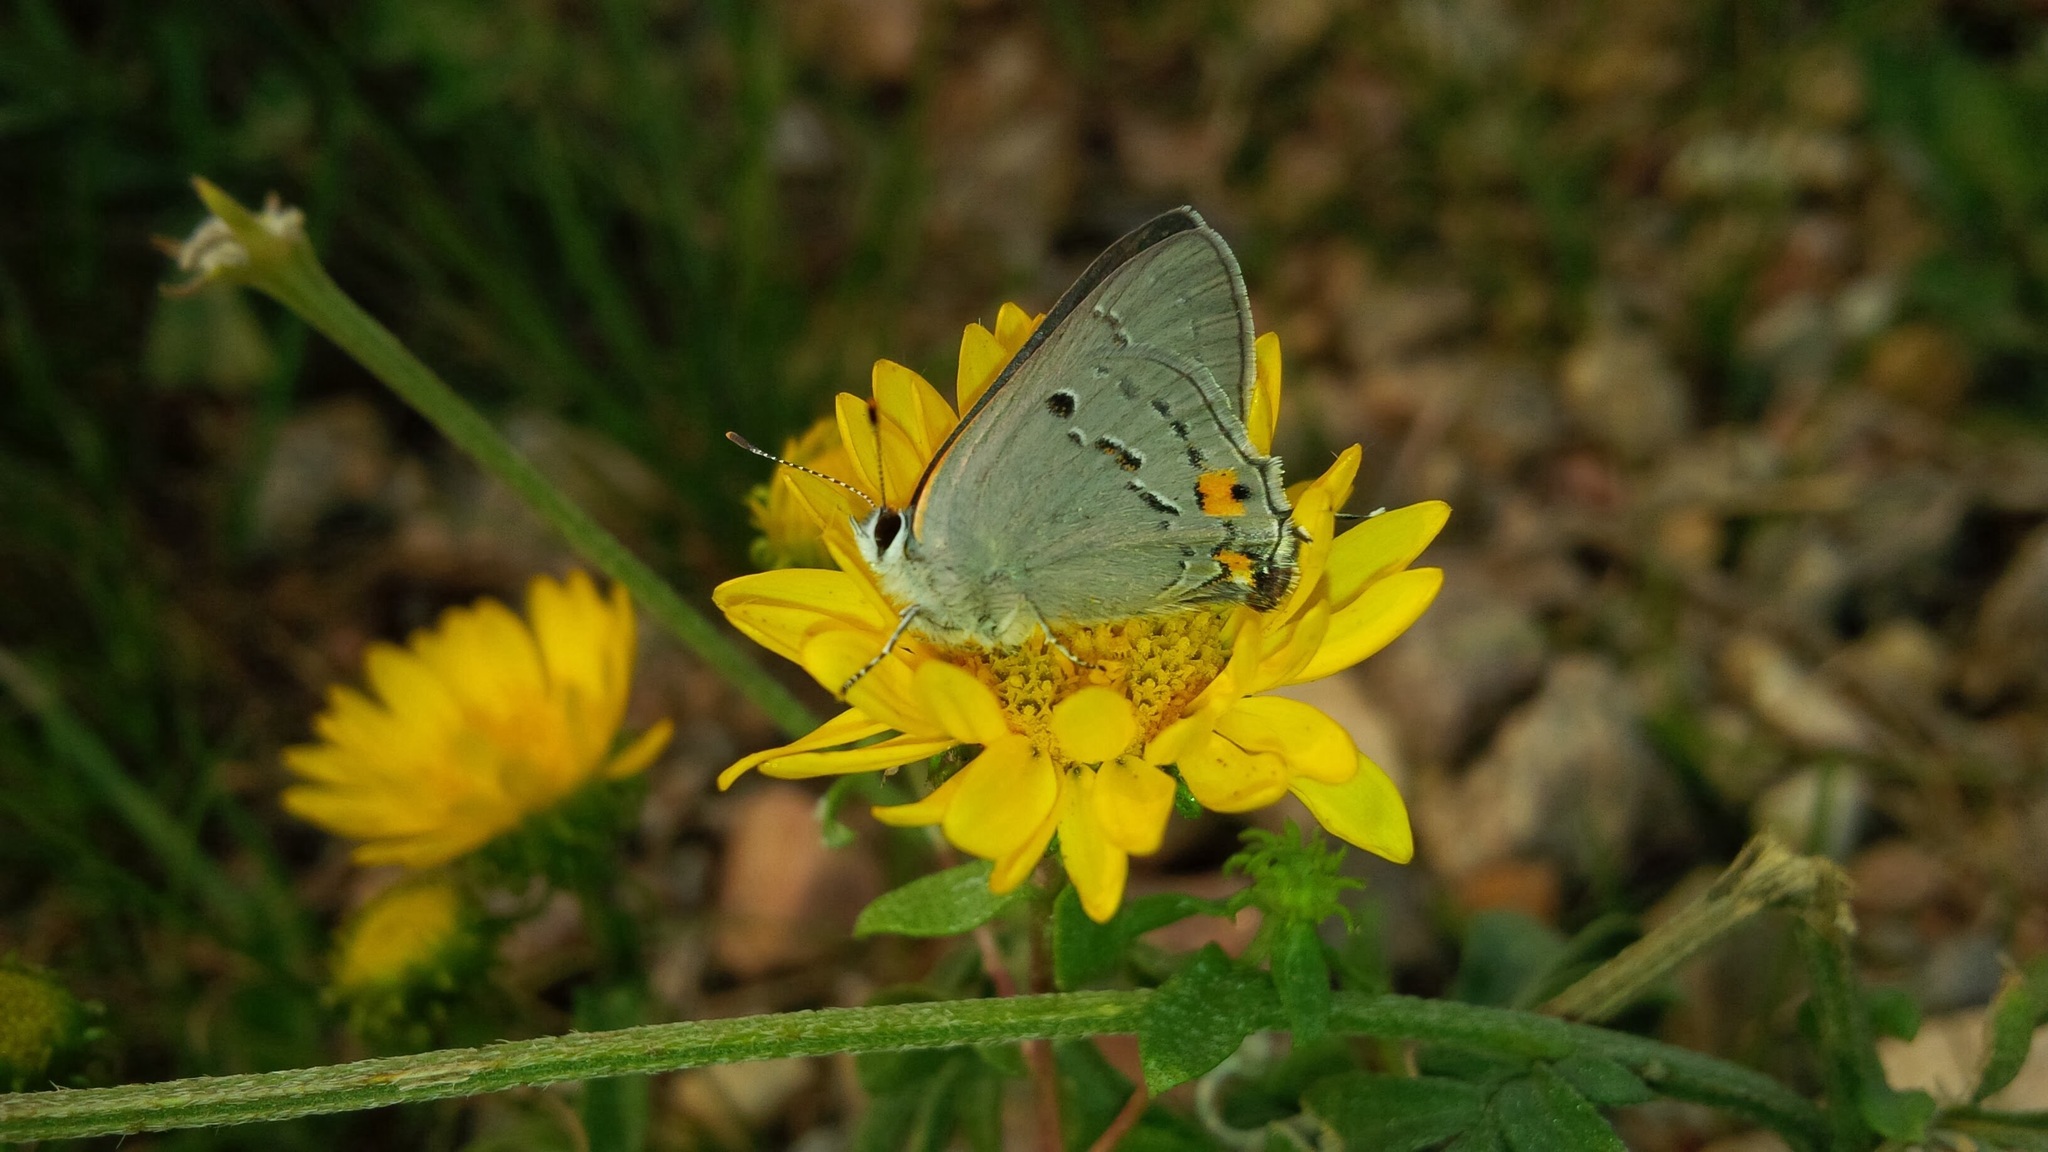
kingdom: Animalia
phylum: Arthropoda
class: Insecta
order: Lepidoptera
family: Lycaenidae
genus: Strymon
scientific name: Strymon melinus
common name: Gray hairstreak
